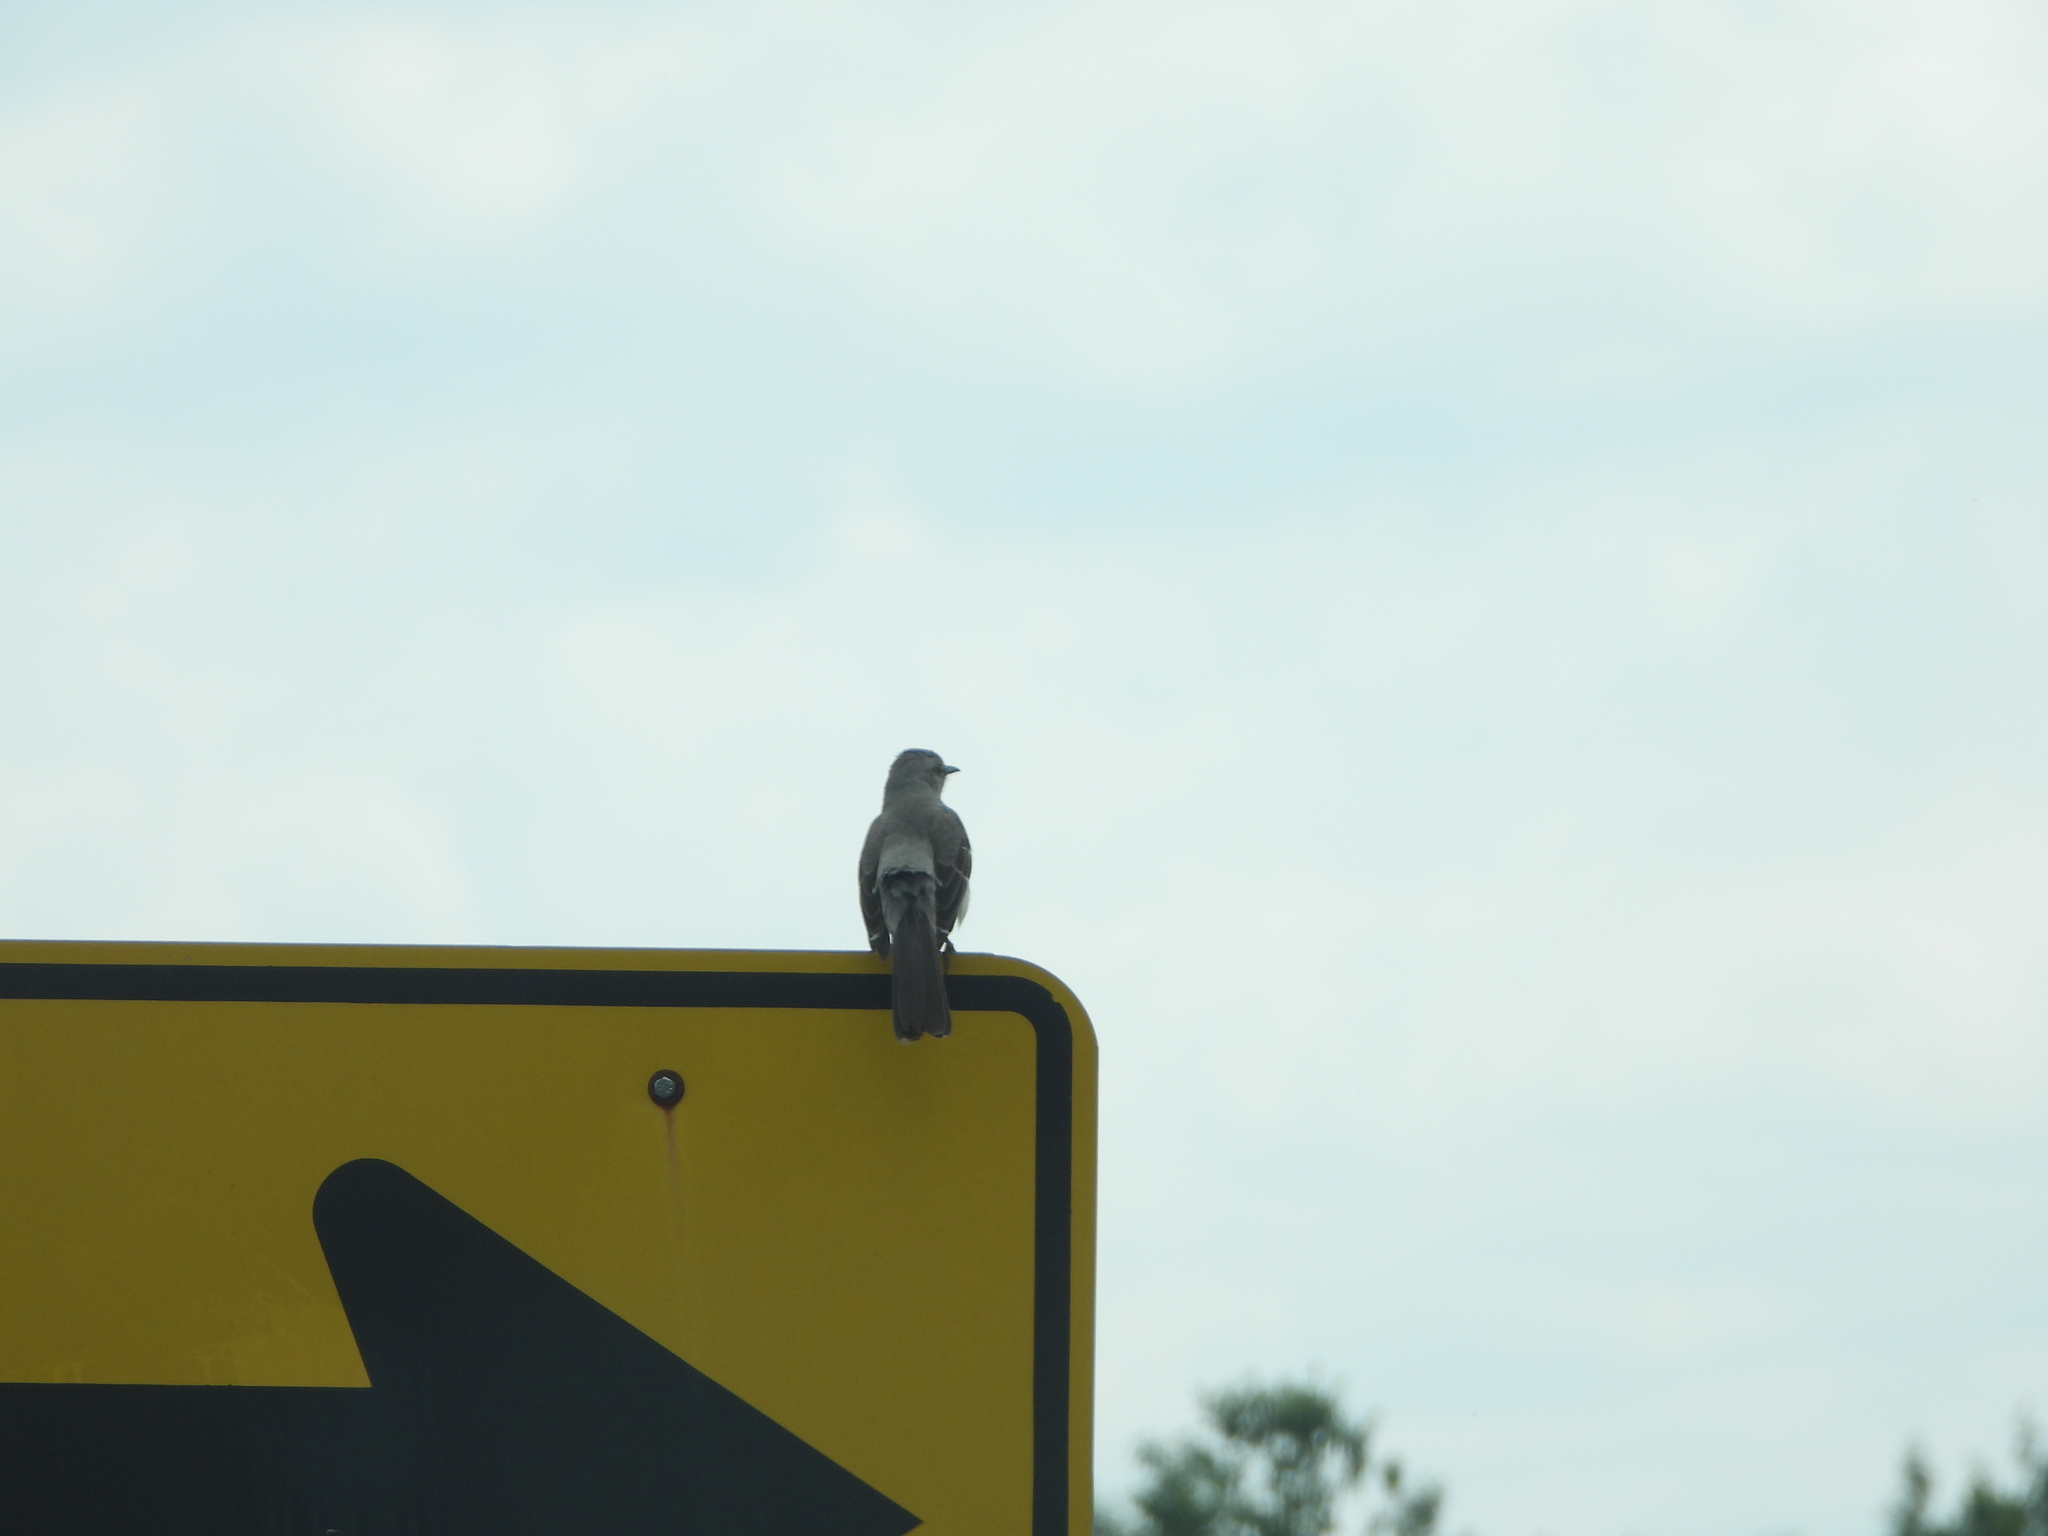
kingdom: Animalia
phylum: Chordata
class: Aves
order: Passeriformes
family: Mimidae
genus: Mimus
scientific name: Mimus polyglottos
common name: Northern mockingbird
